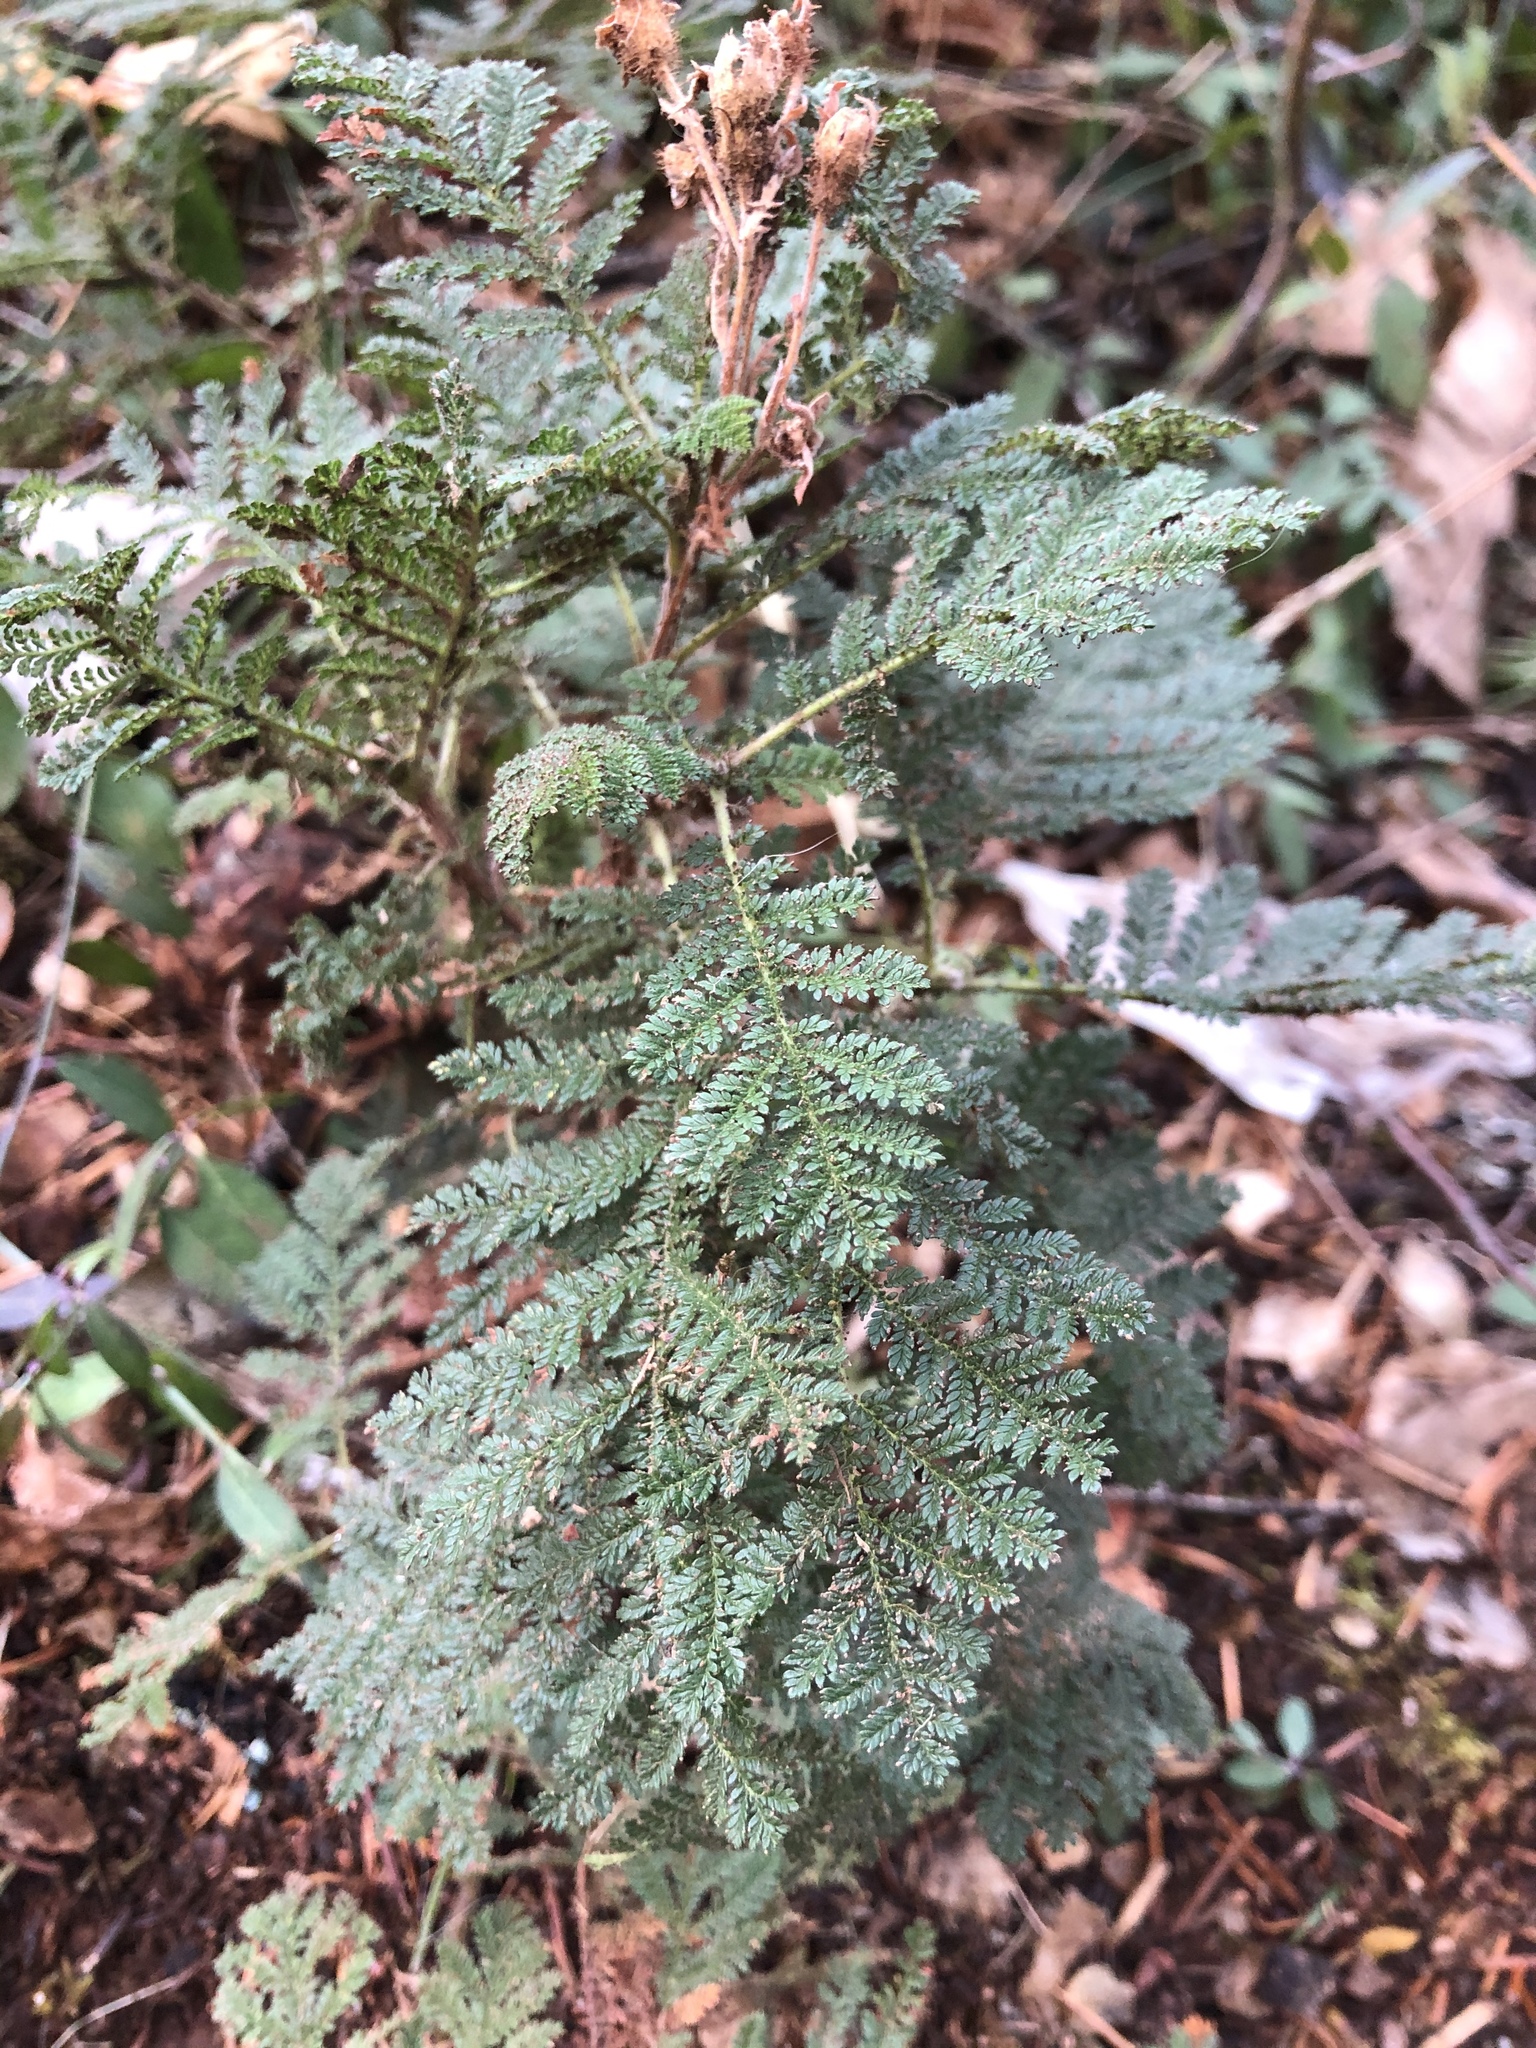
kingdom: Plantae
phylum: Tracheophyta
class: Magnoliopsida
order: Rosales
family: Rosaceae
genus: Chamaebatia
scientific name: Chamaebatia foliolosa
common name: Mountain misery
